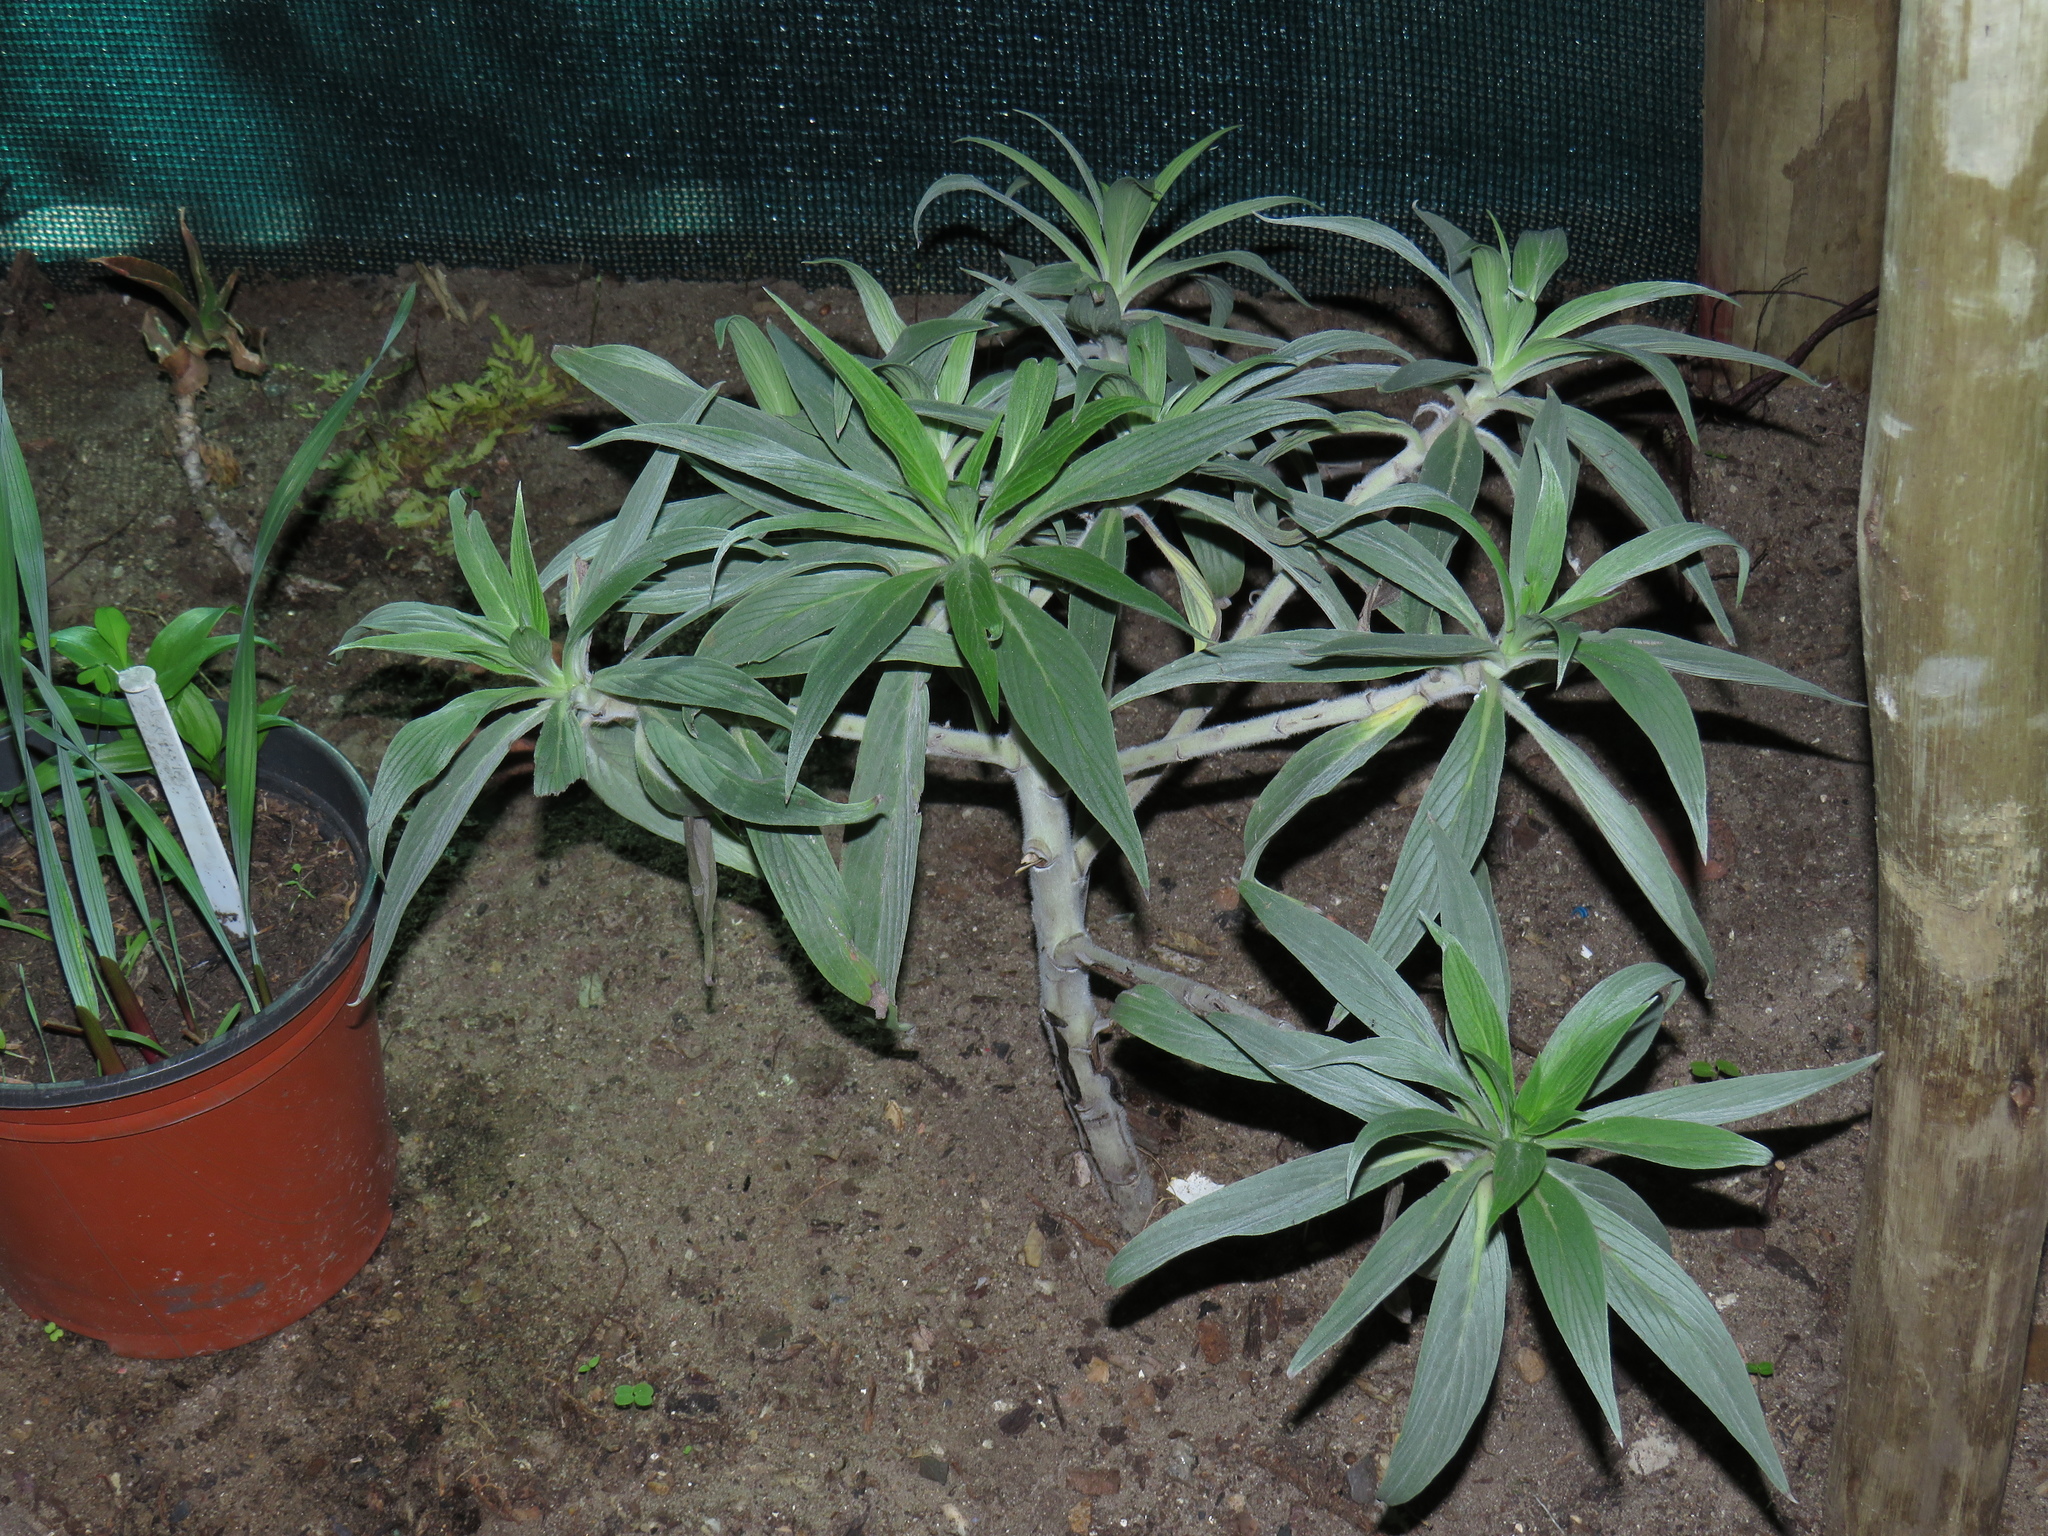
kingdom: Plantae
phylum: Tracheophyta
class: Magnoliopsida
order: Boraginales
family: Boraginaceae
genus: Echium
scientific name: Echium candicans
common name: Pride of madeira
